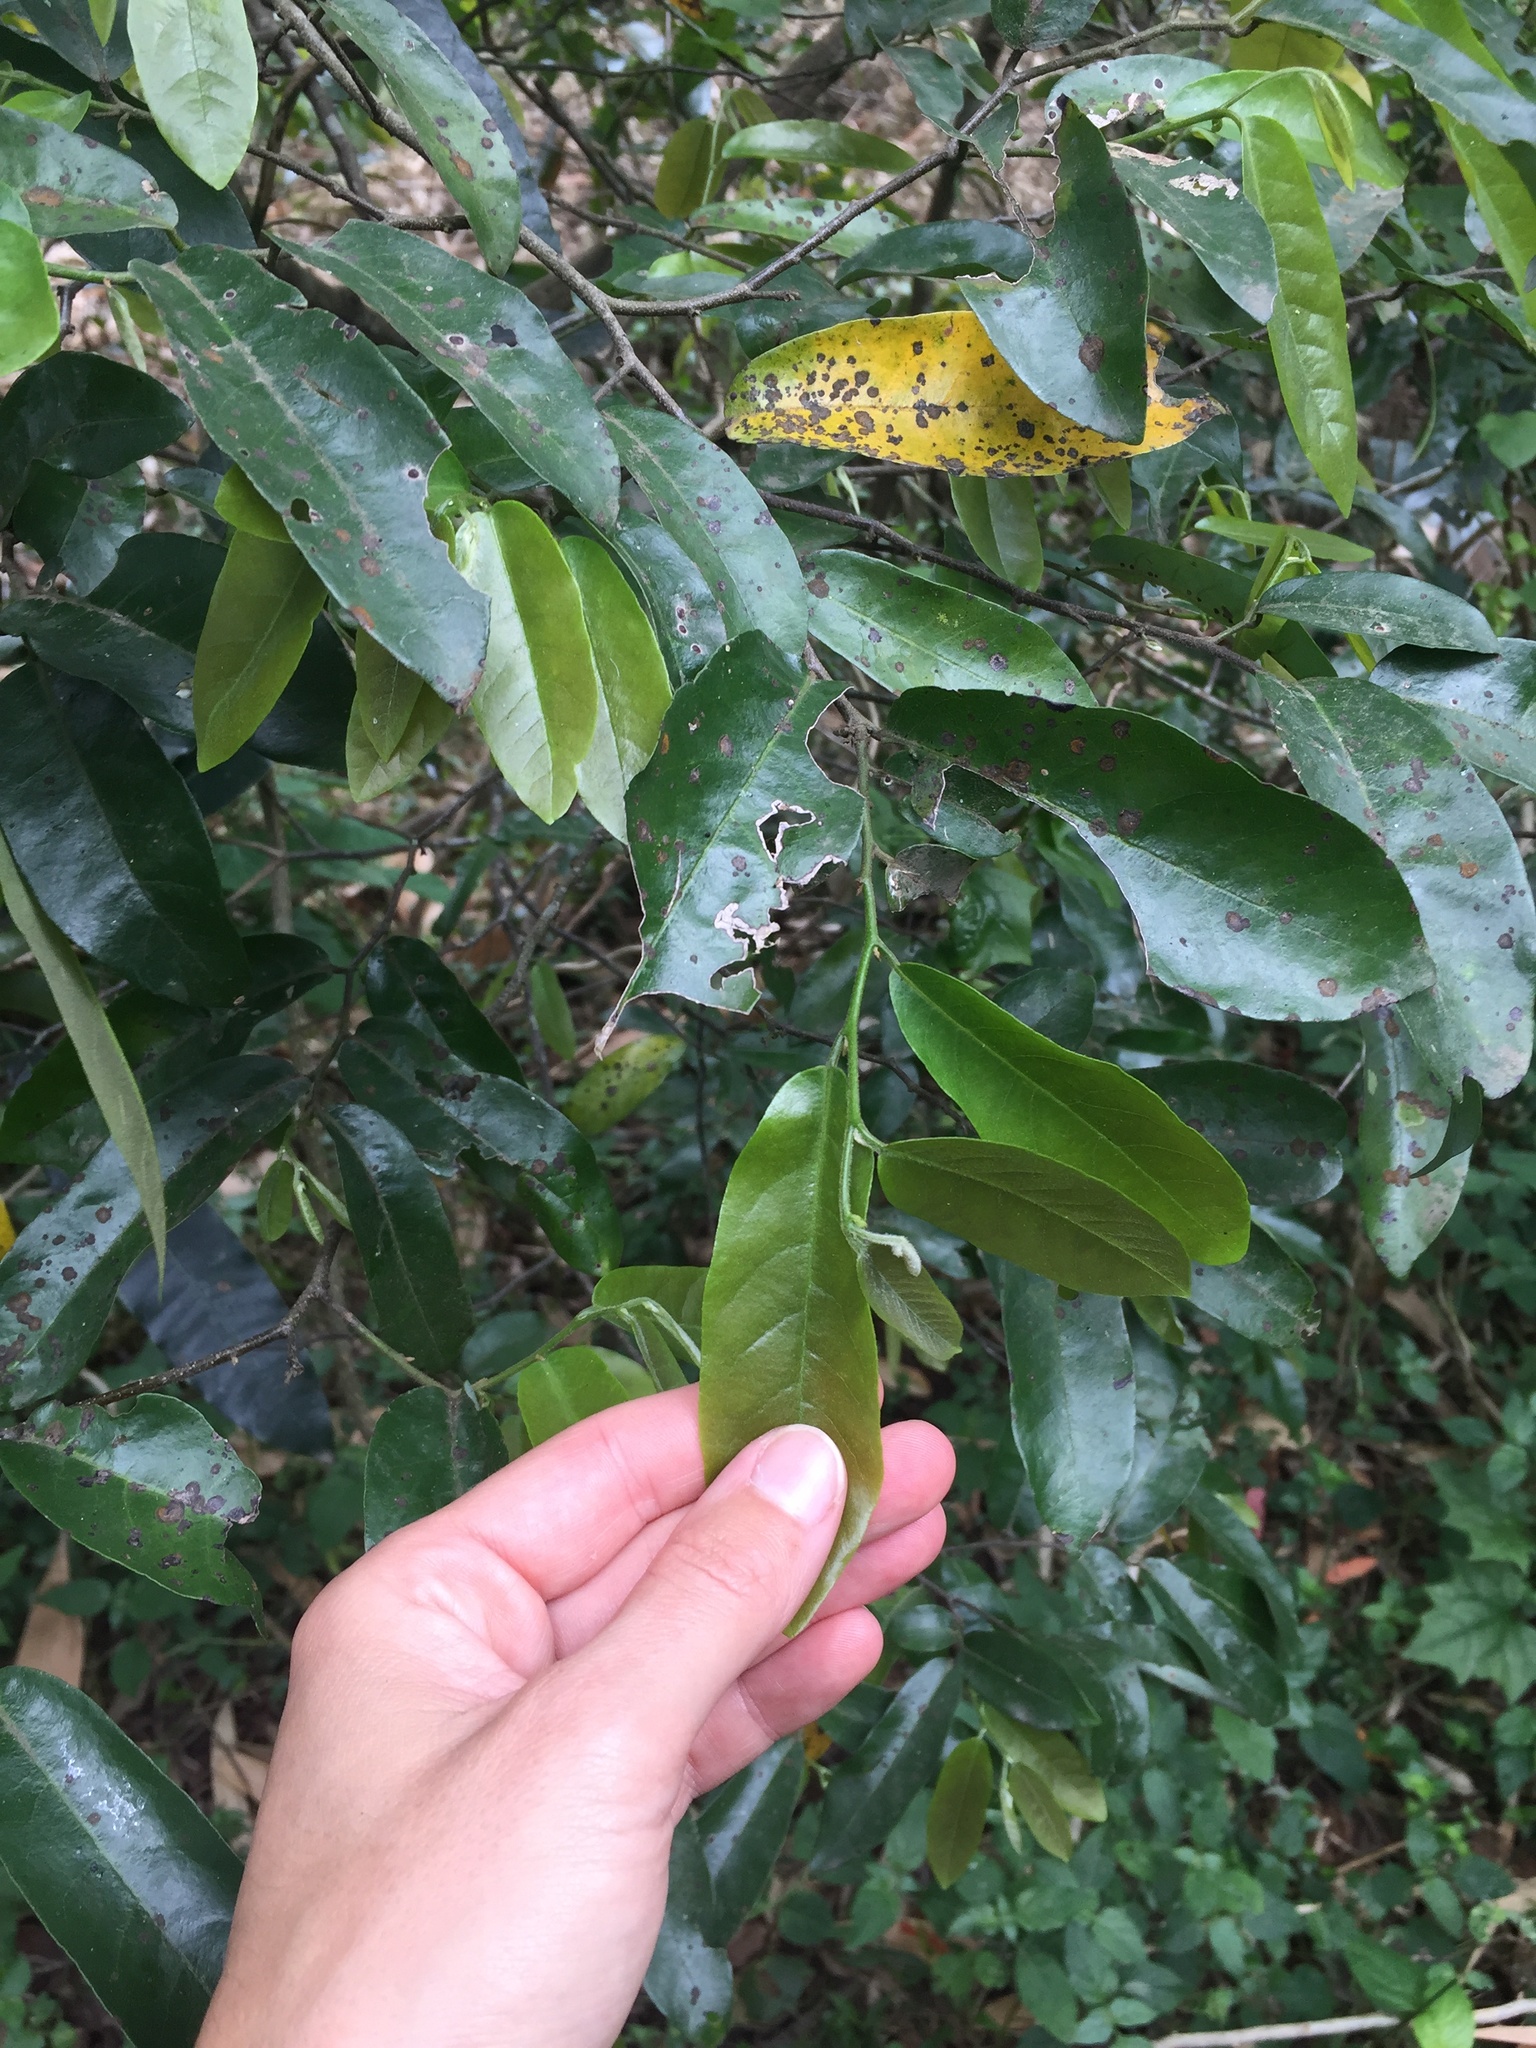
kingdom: Plantae
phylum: Tracheophyta
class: Magnoliopsida
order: Magnoliales
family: Annonaceae
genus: Monanthotaxis
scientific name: Monanthotaxis caffra
